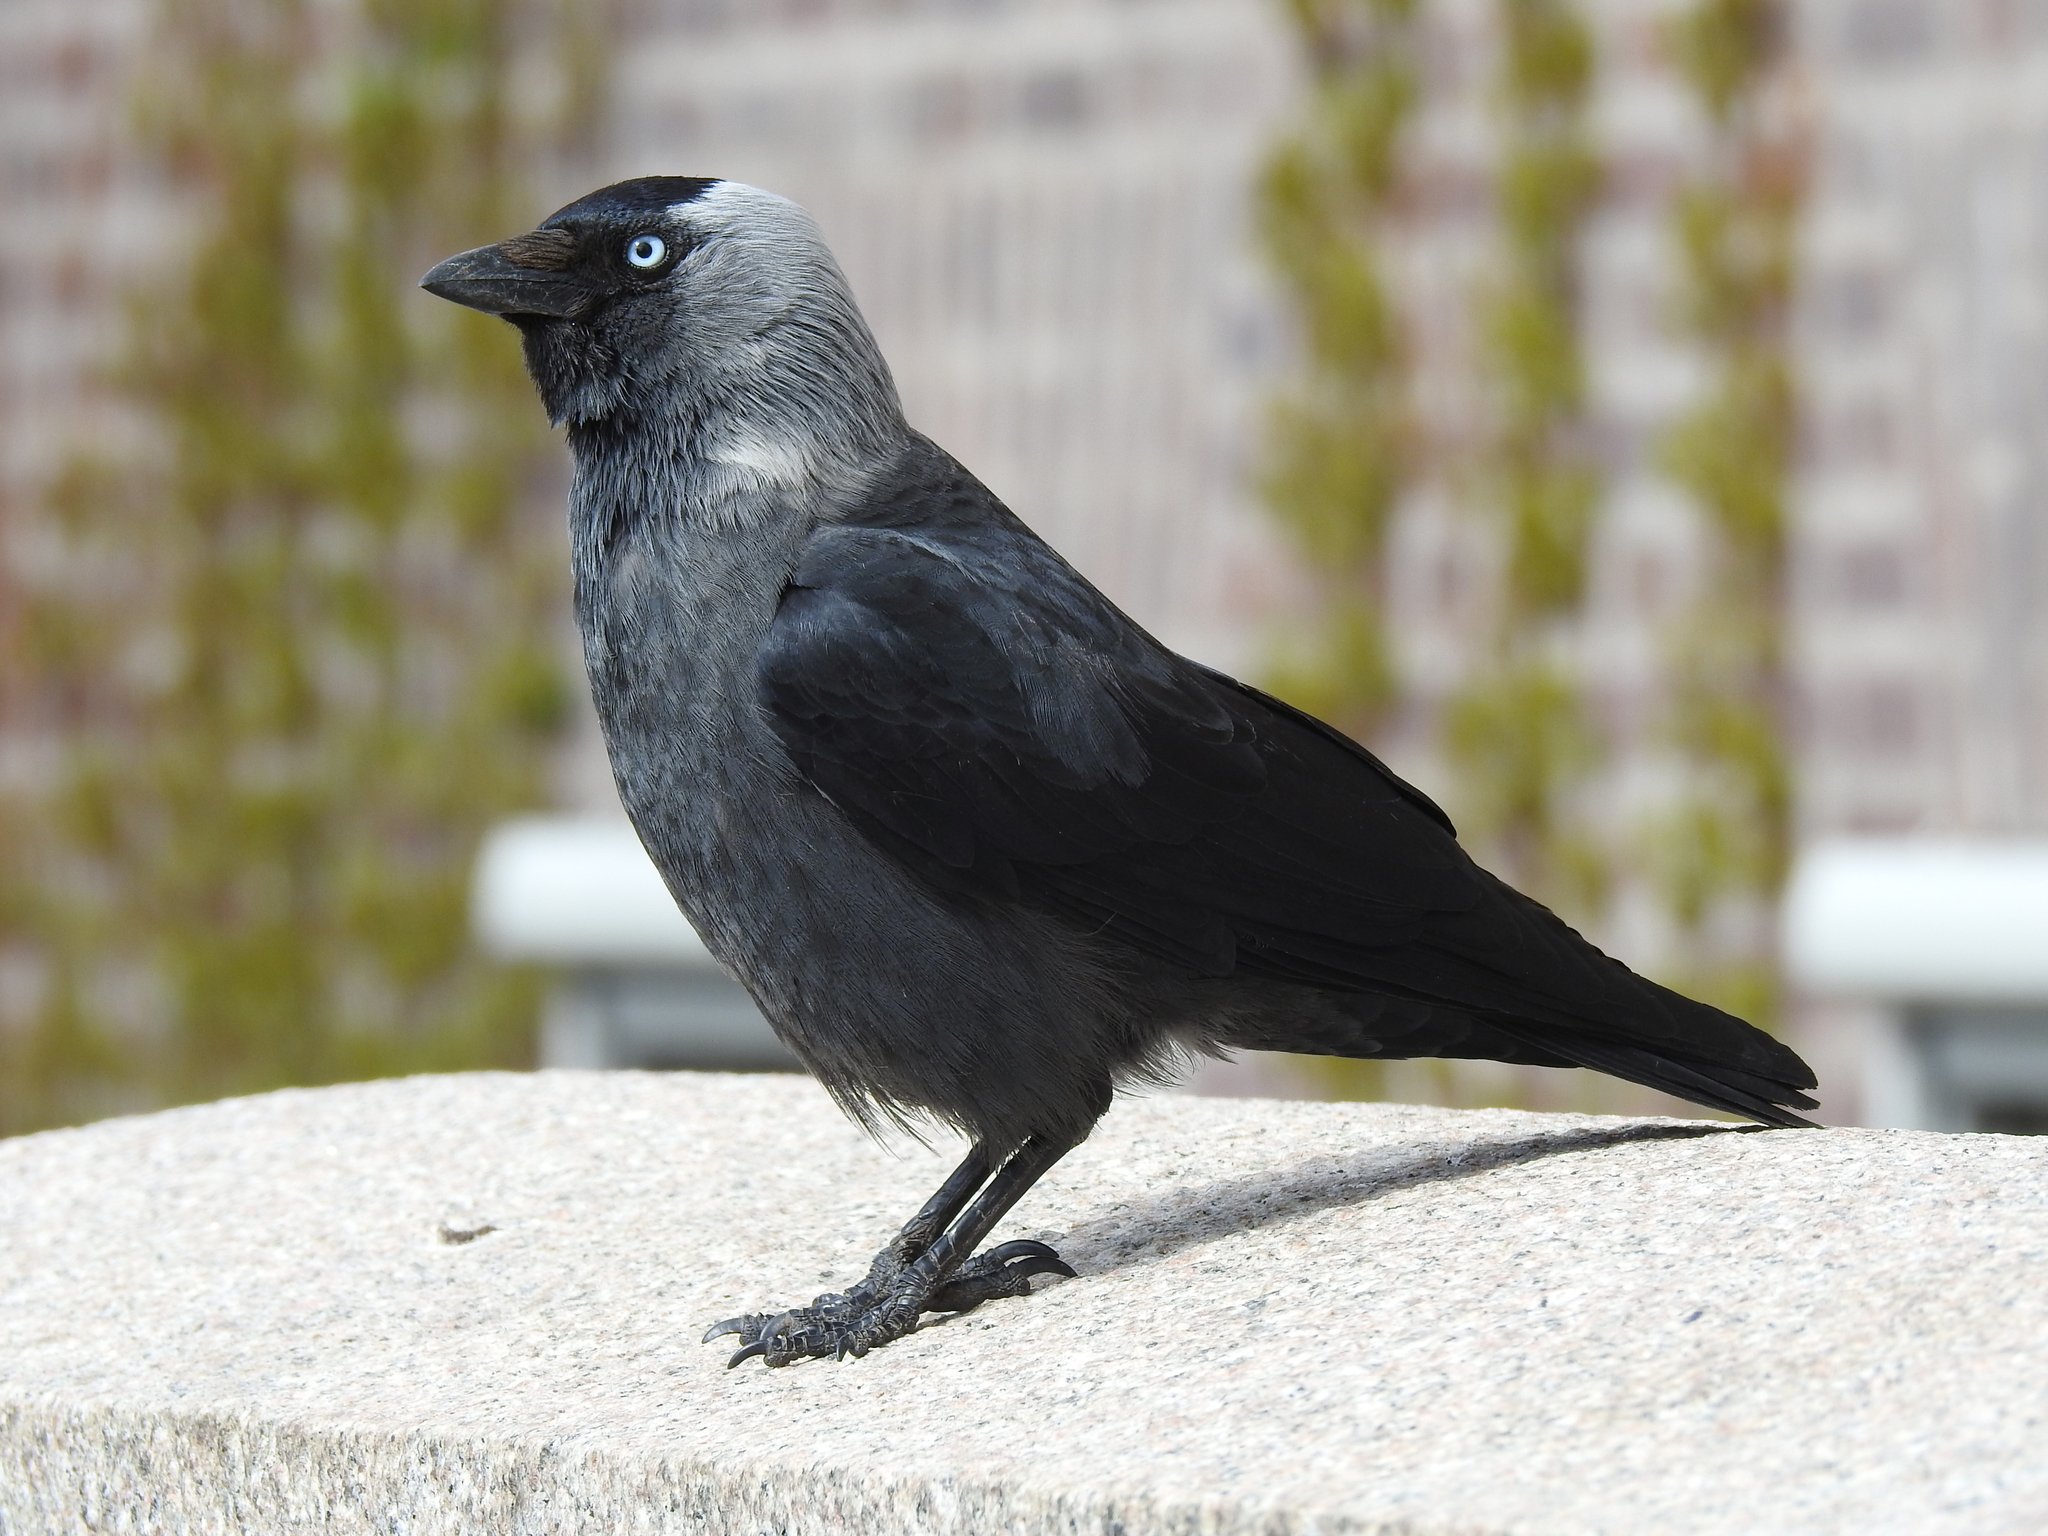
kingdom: Animalia
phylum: Chordata
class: Aves
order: Passeriformes
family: Corvidae
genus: Coloeus
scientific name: Coloeus monedula
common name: Western jackdaw
